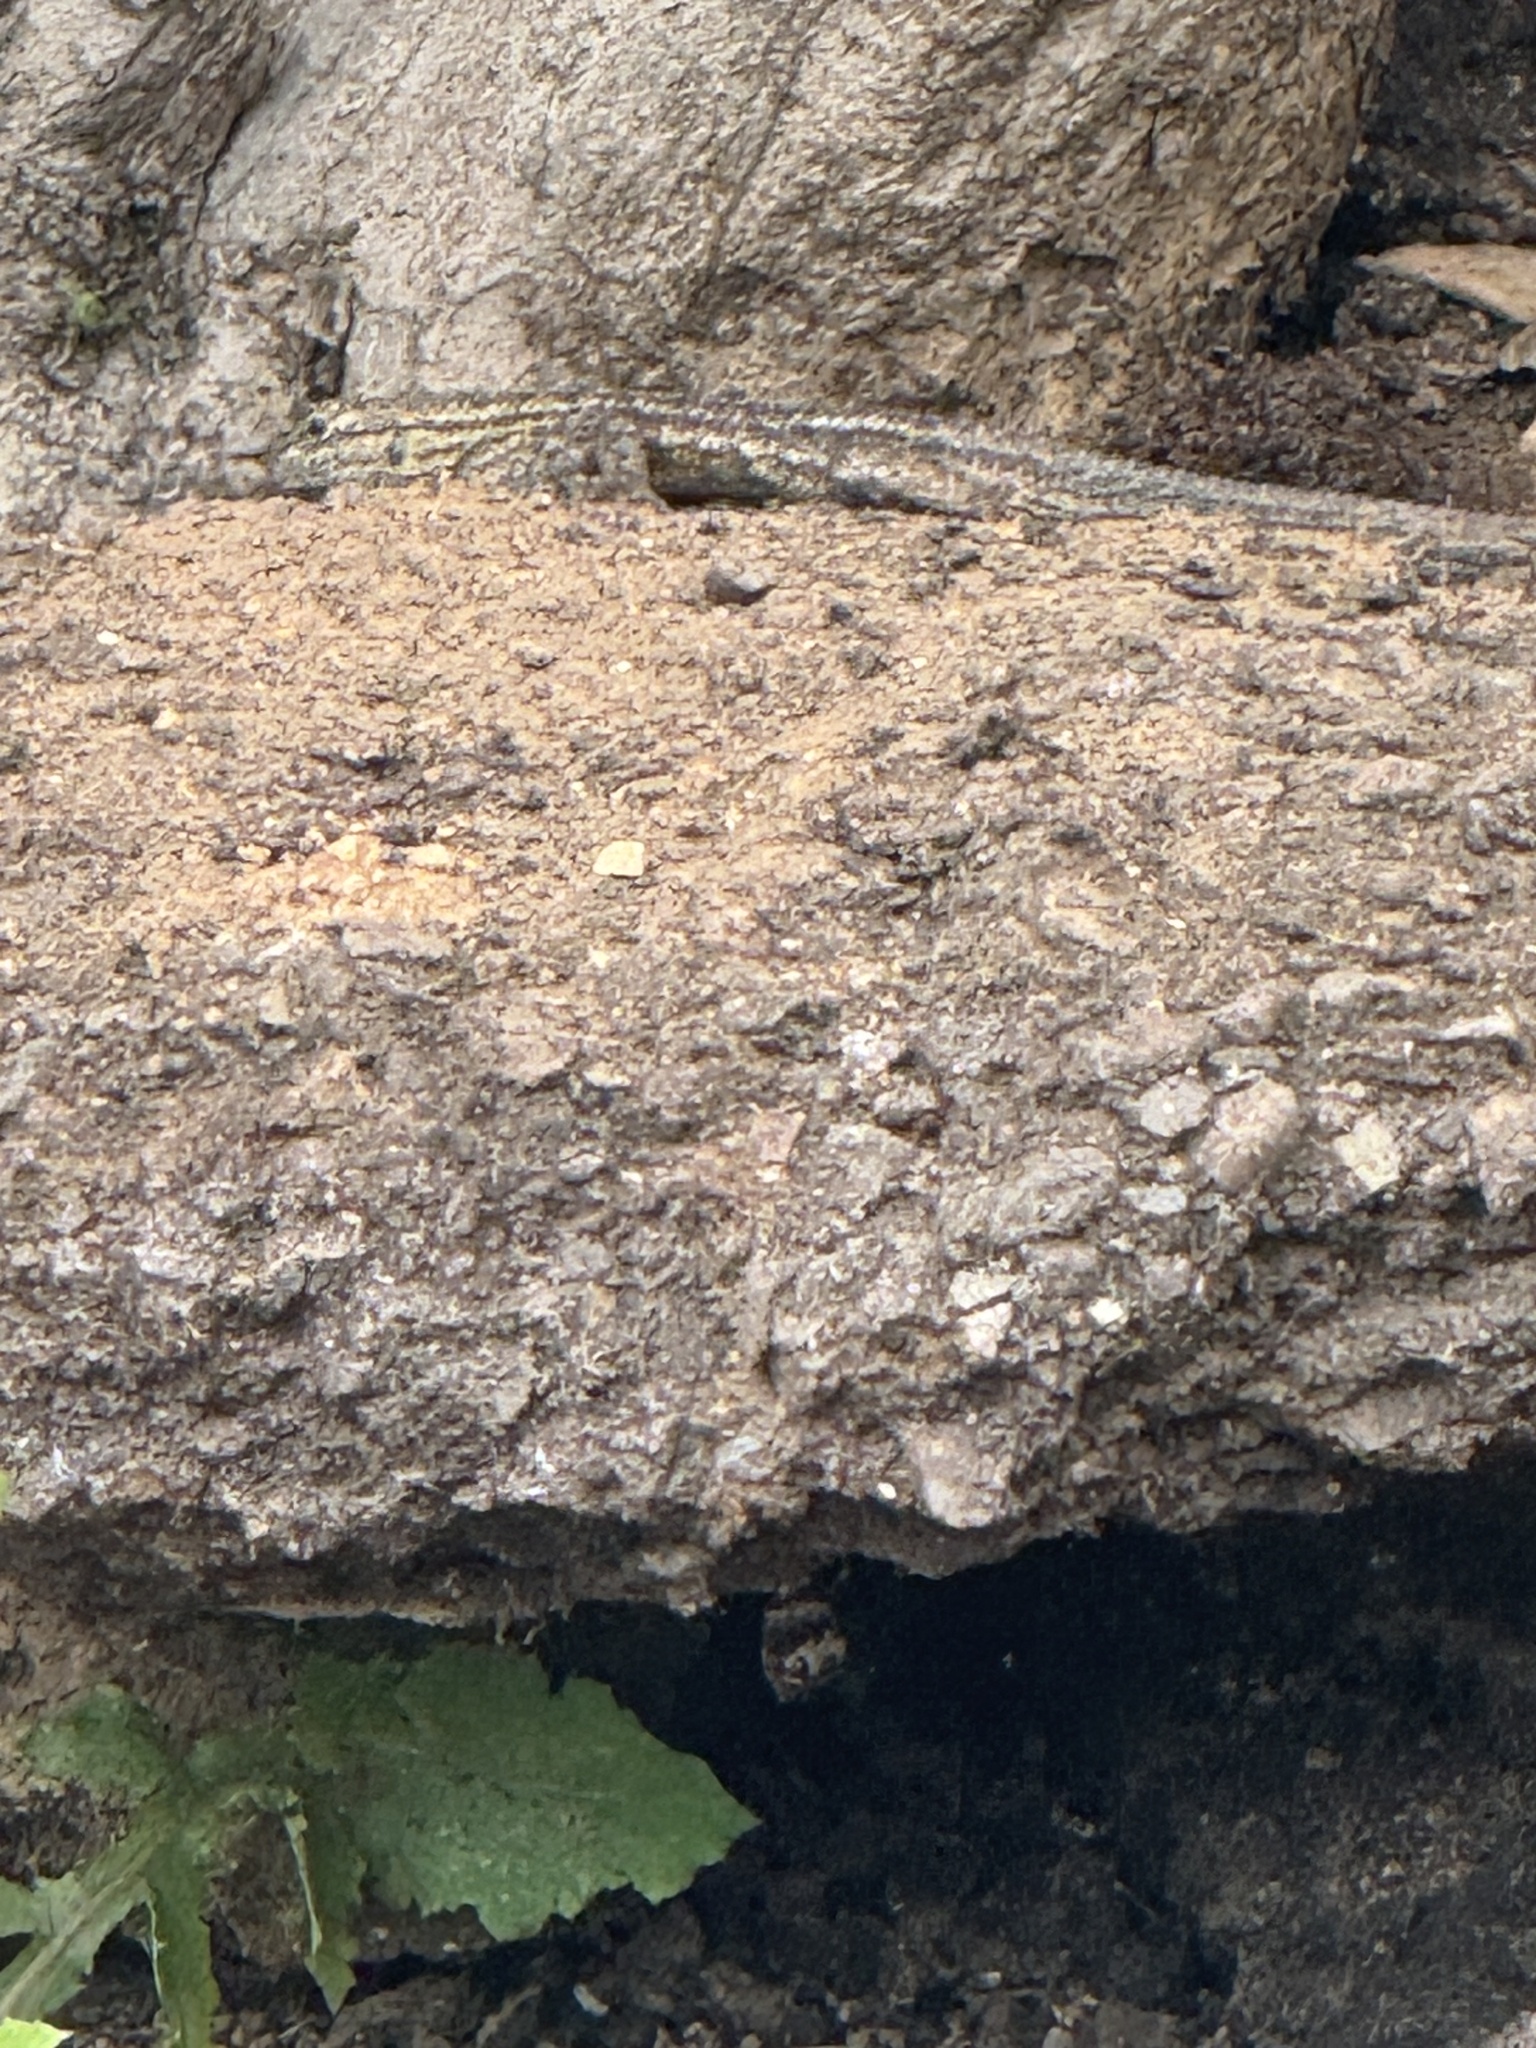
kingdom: Animalia
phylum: Chordata
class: Squamata
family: Phrynosomatidae
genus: Sceloporus
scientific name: Sceloporus occidentalis
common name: Western fence lizard
